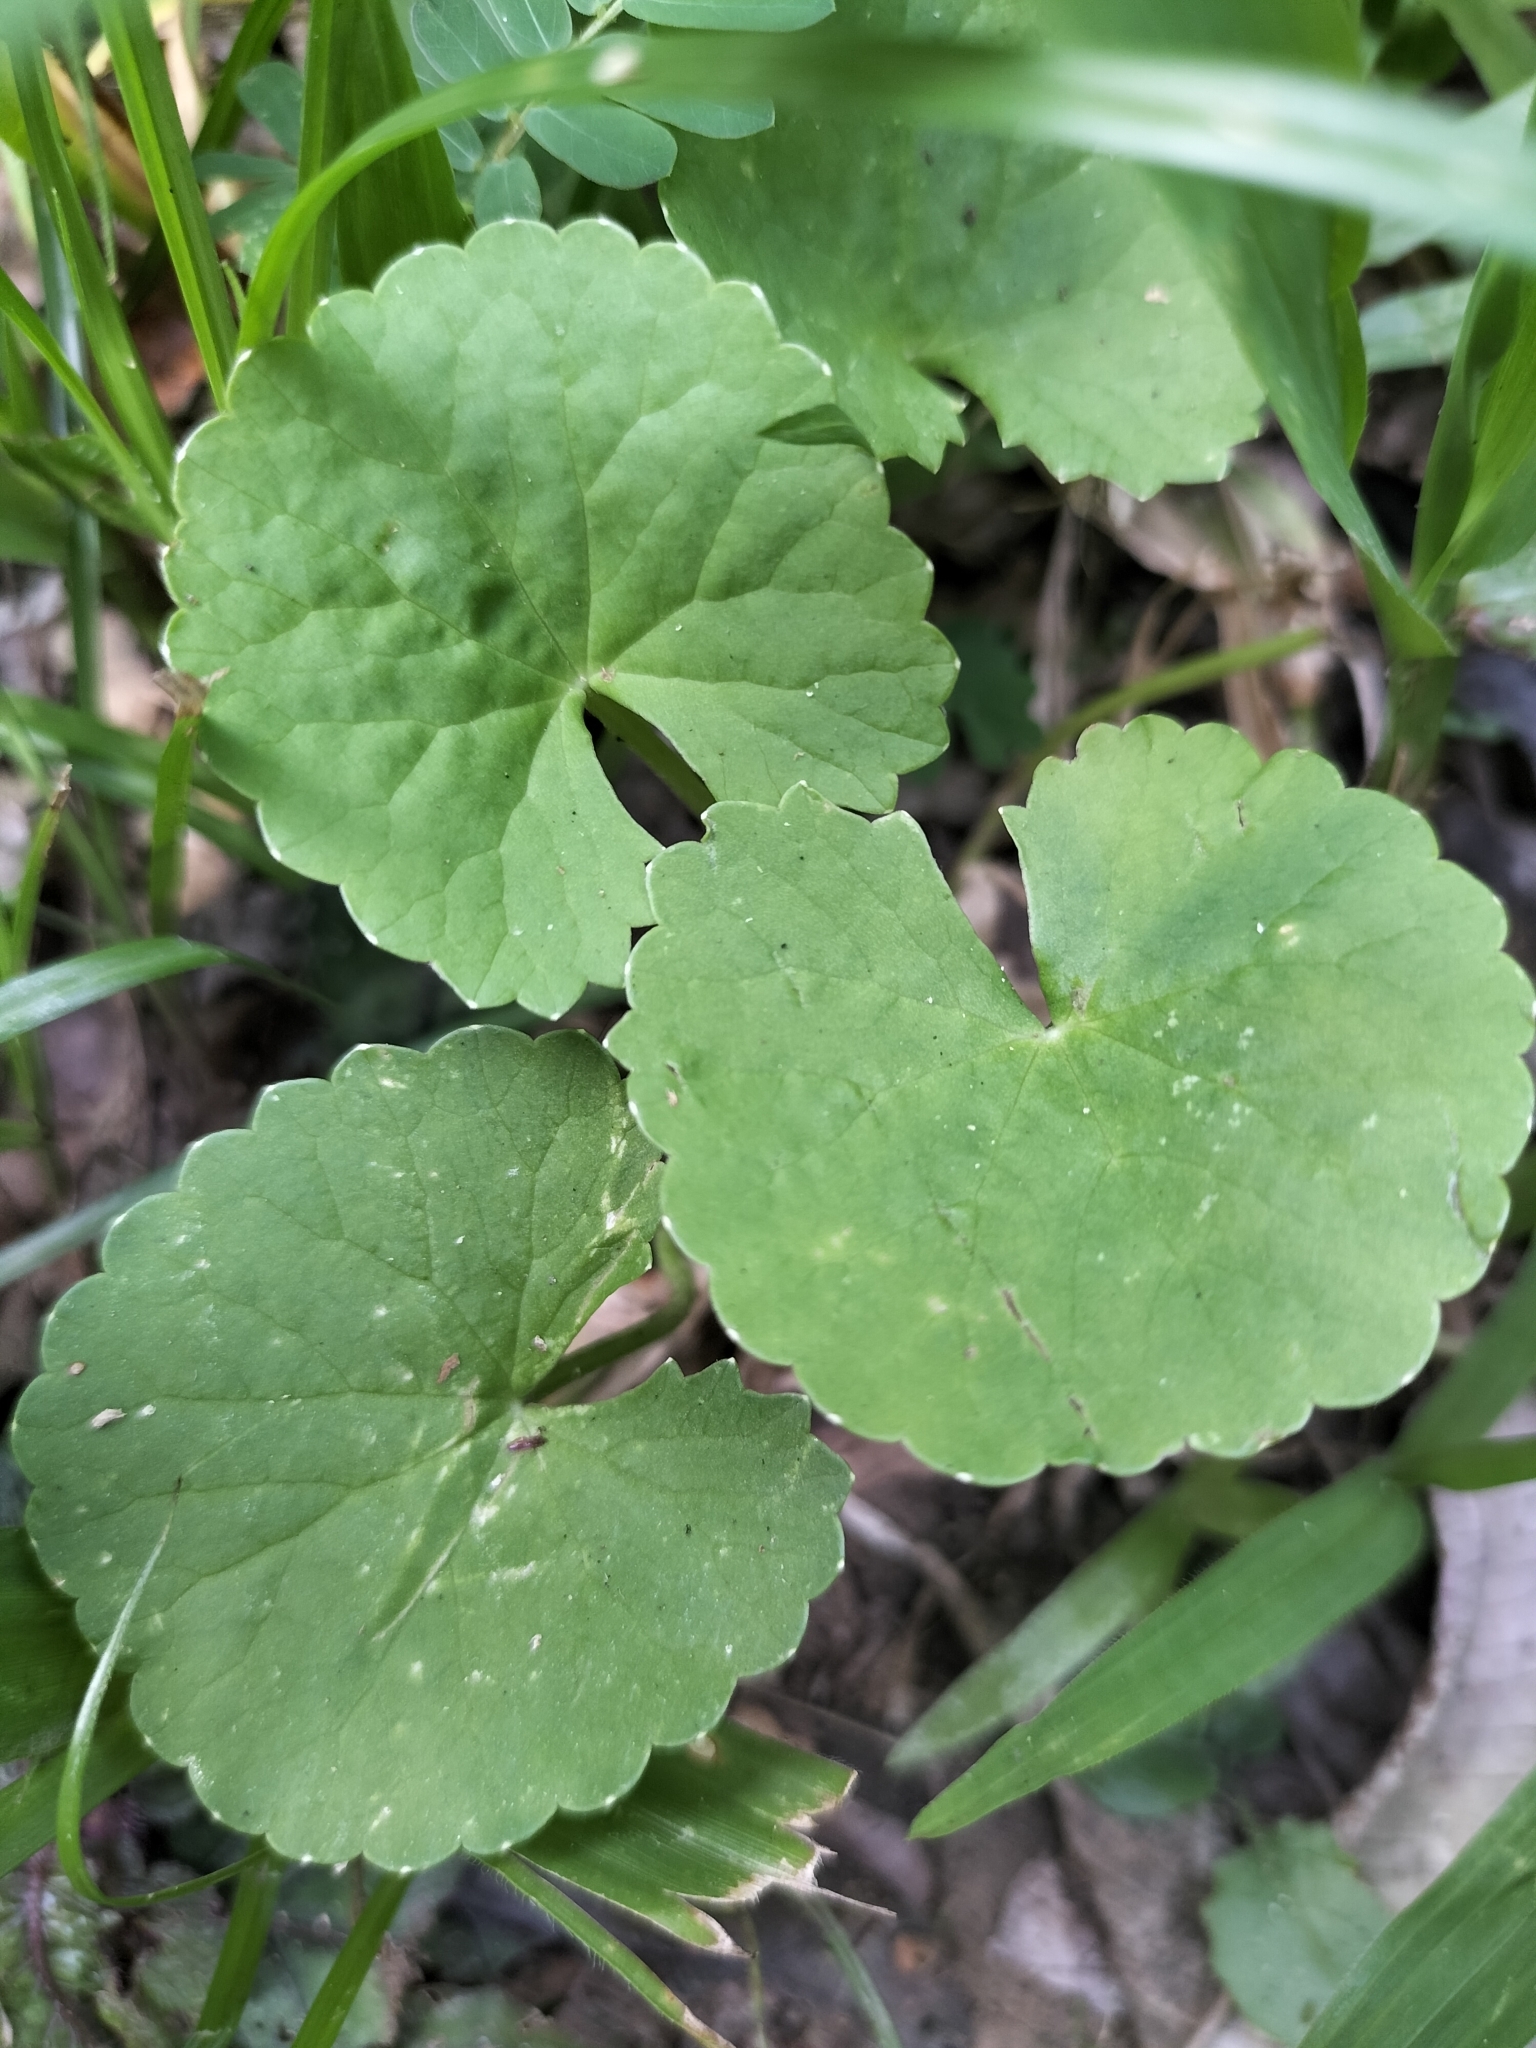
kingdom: Plantae
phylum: Tracheophyta
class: Magnoliopsida
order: Apiales
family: Apiaceae
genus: Centella
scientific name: Centella asiatica
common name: Spadeleaf
